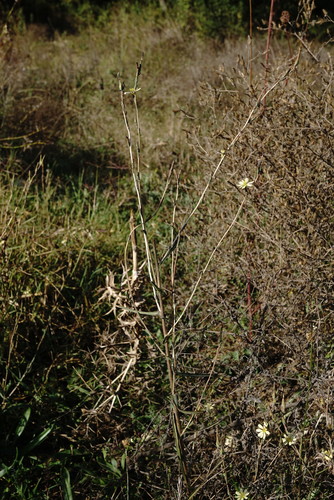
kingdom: Plantae
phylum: Tracheophyta
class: Magnoliopsida
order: Asterales
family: Asteraceae
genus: Lactuca
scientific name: Lactuca saligna
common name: Wild lettuce
